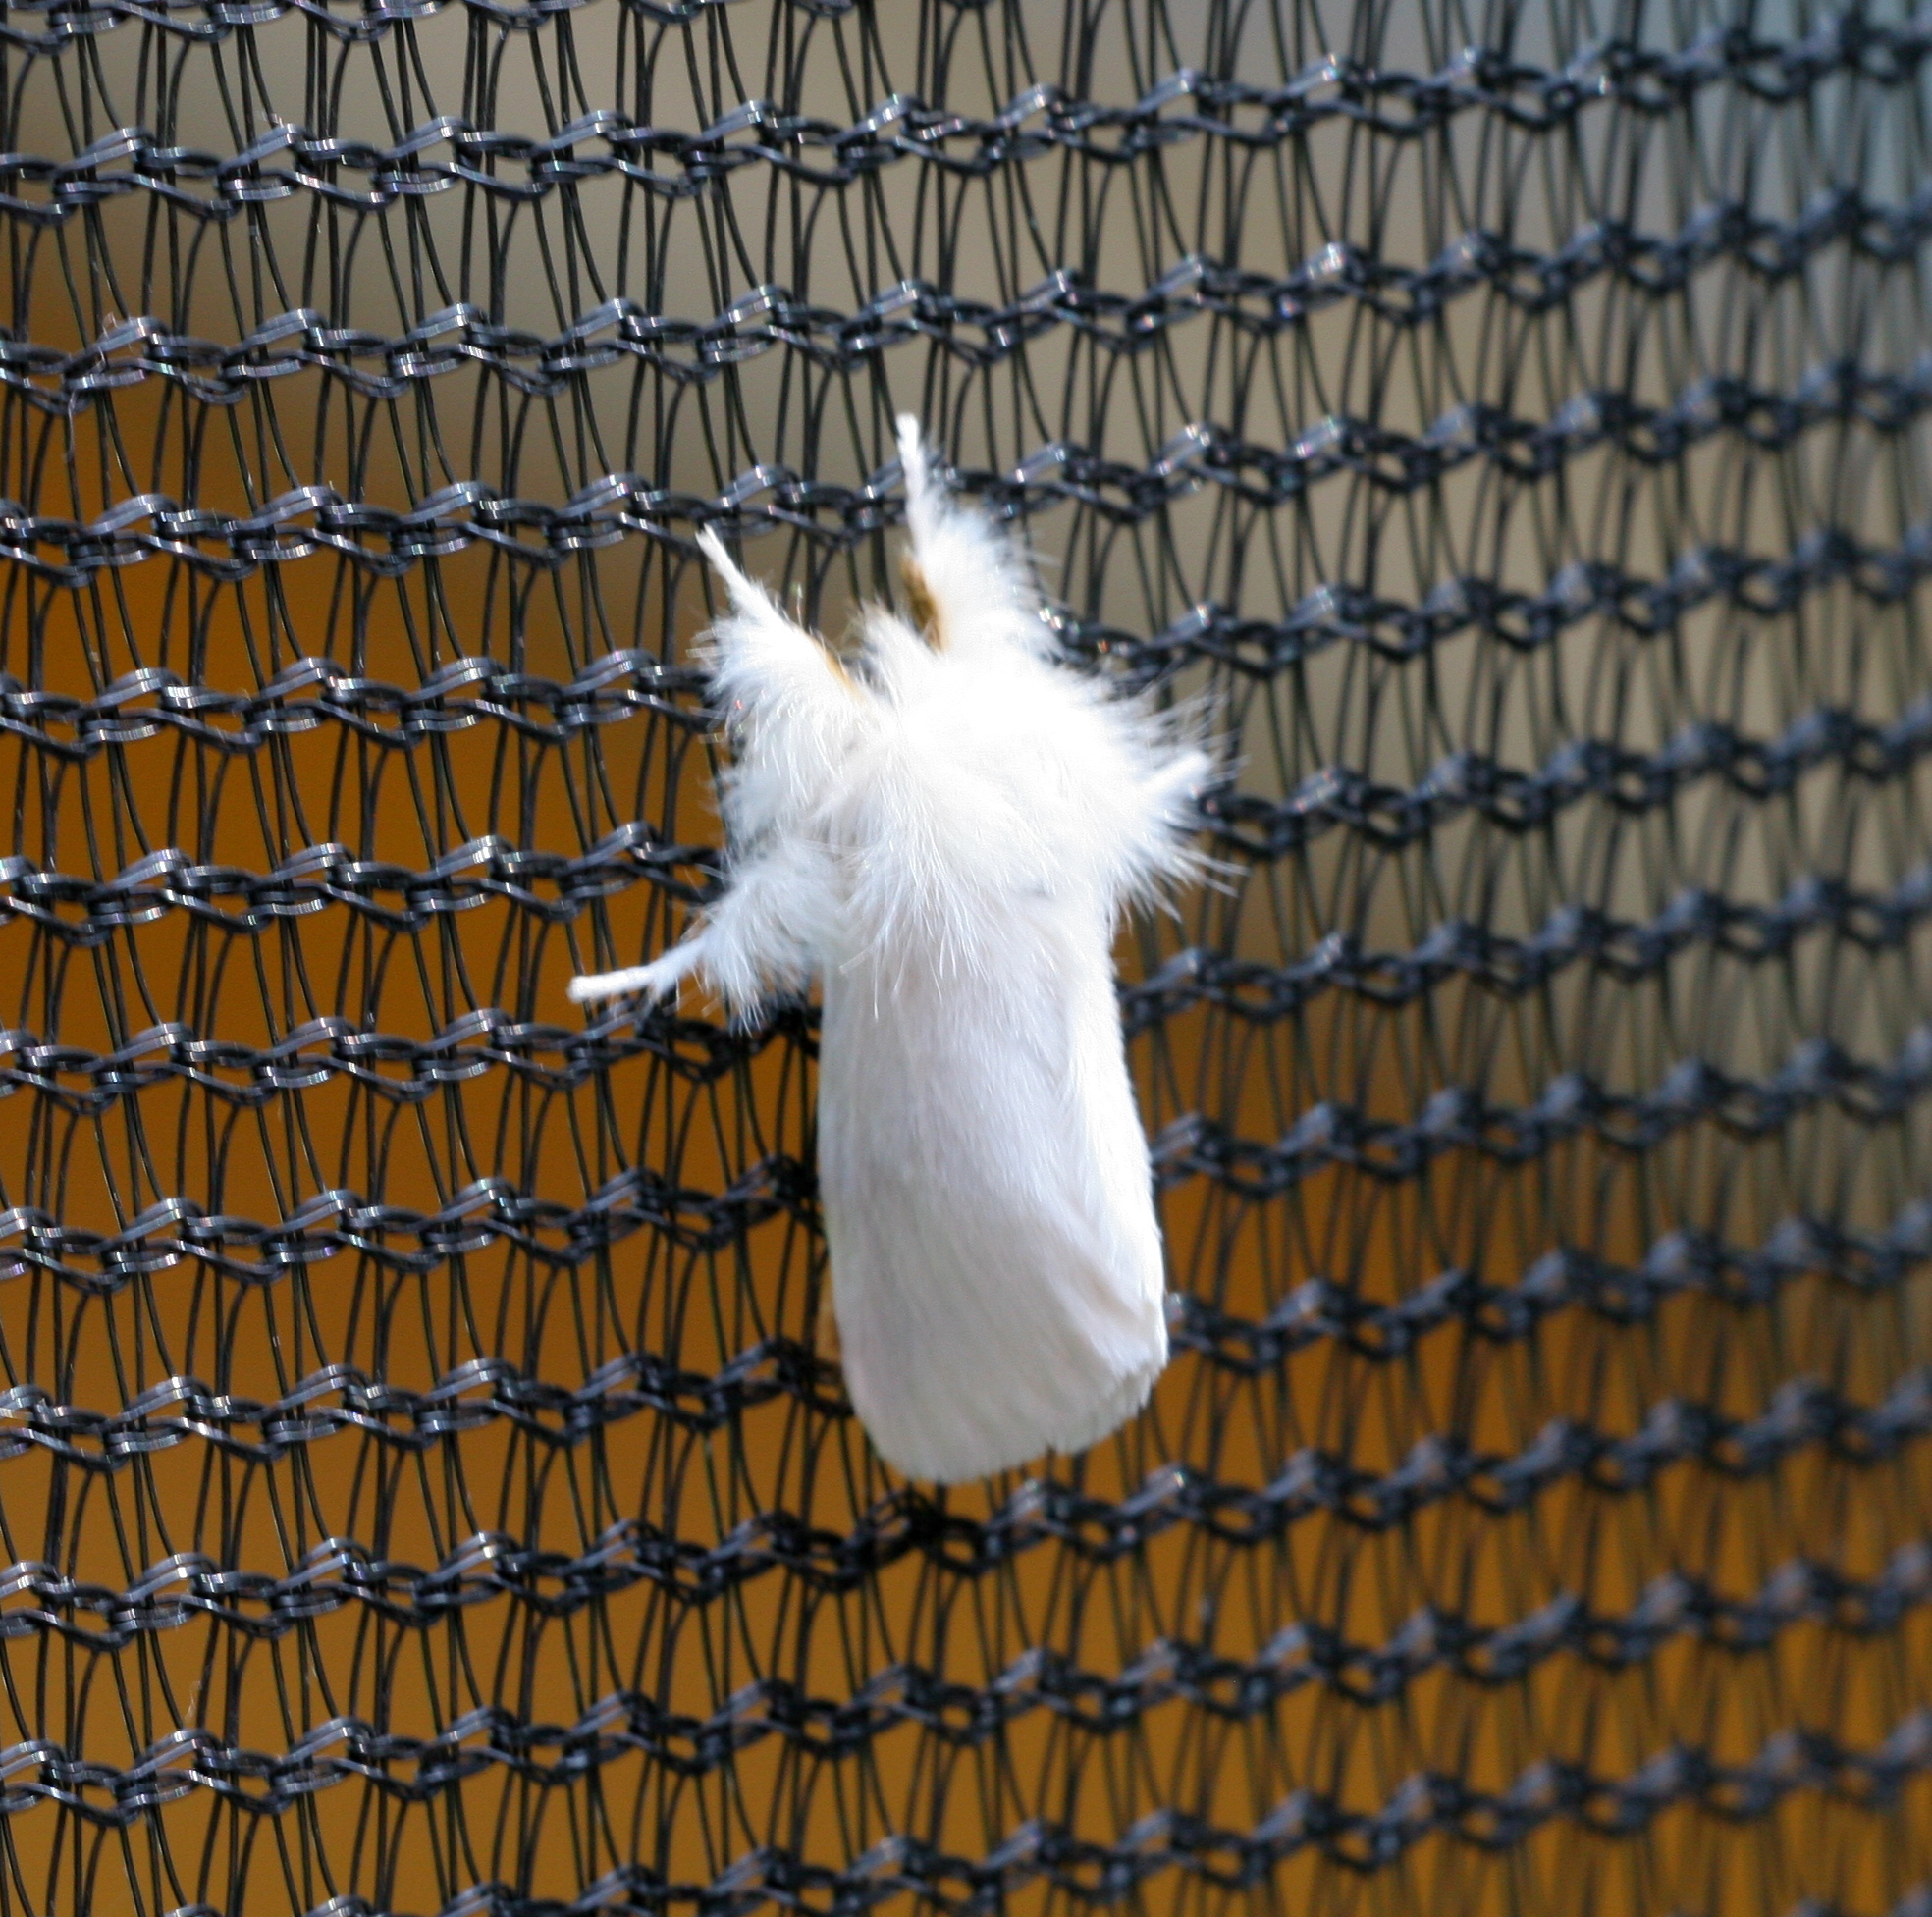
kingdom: Animalia
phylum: Arthropoda
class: Insecta
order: Lepidoptera
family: Erebidae
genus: Euproctis
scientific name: Euproctis chrysorrhoea
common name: Brown-tail
